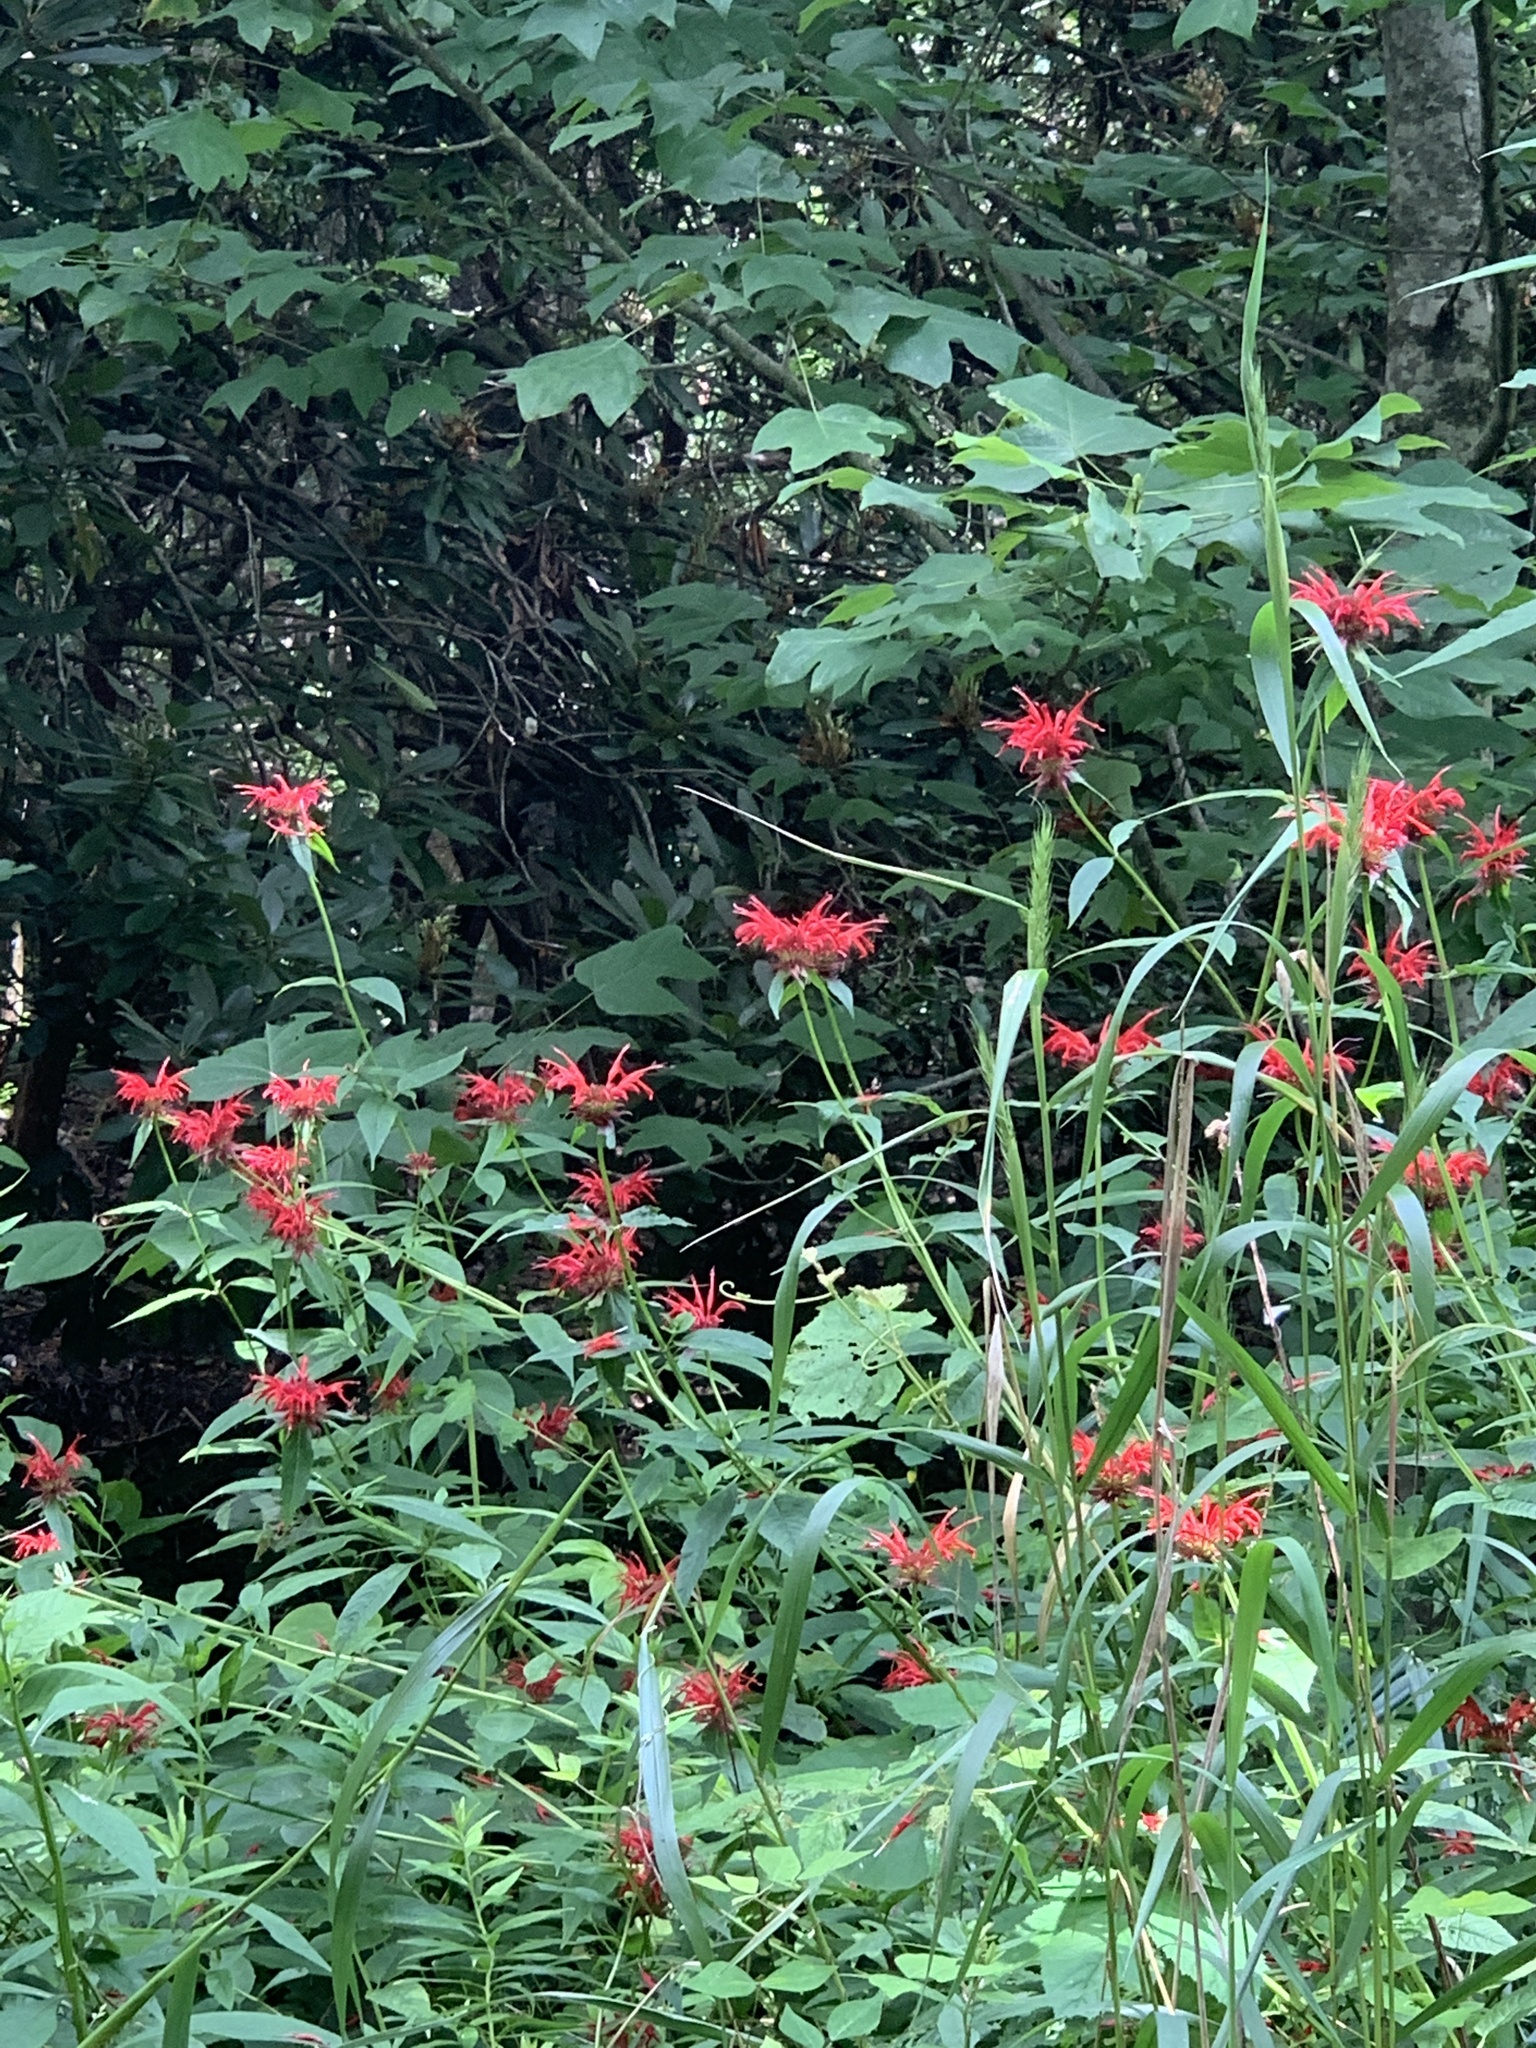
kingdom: Plantae
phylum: Tracheophyta
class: Magnoliopsida
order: Lamiales
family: Lamiaceae
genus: Monarda
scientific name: Monarda didyma
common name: Beebalm
